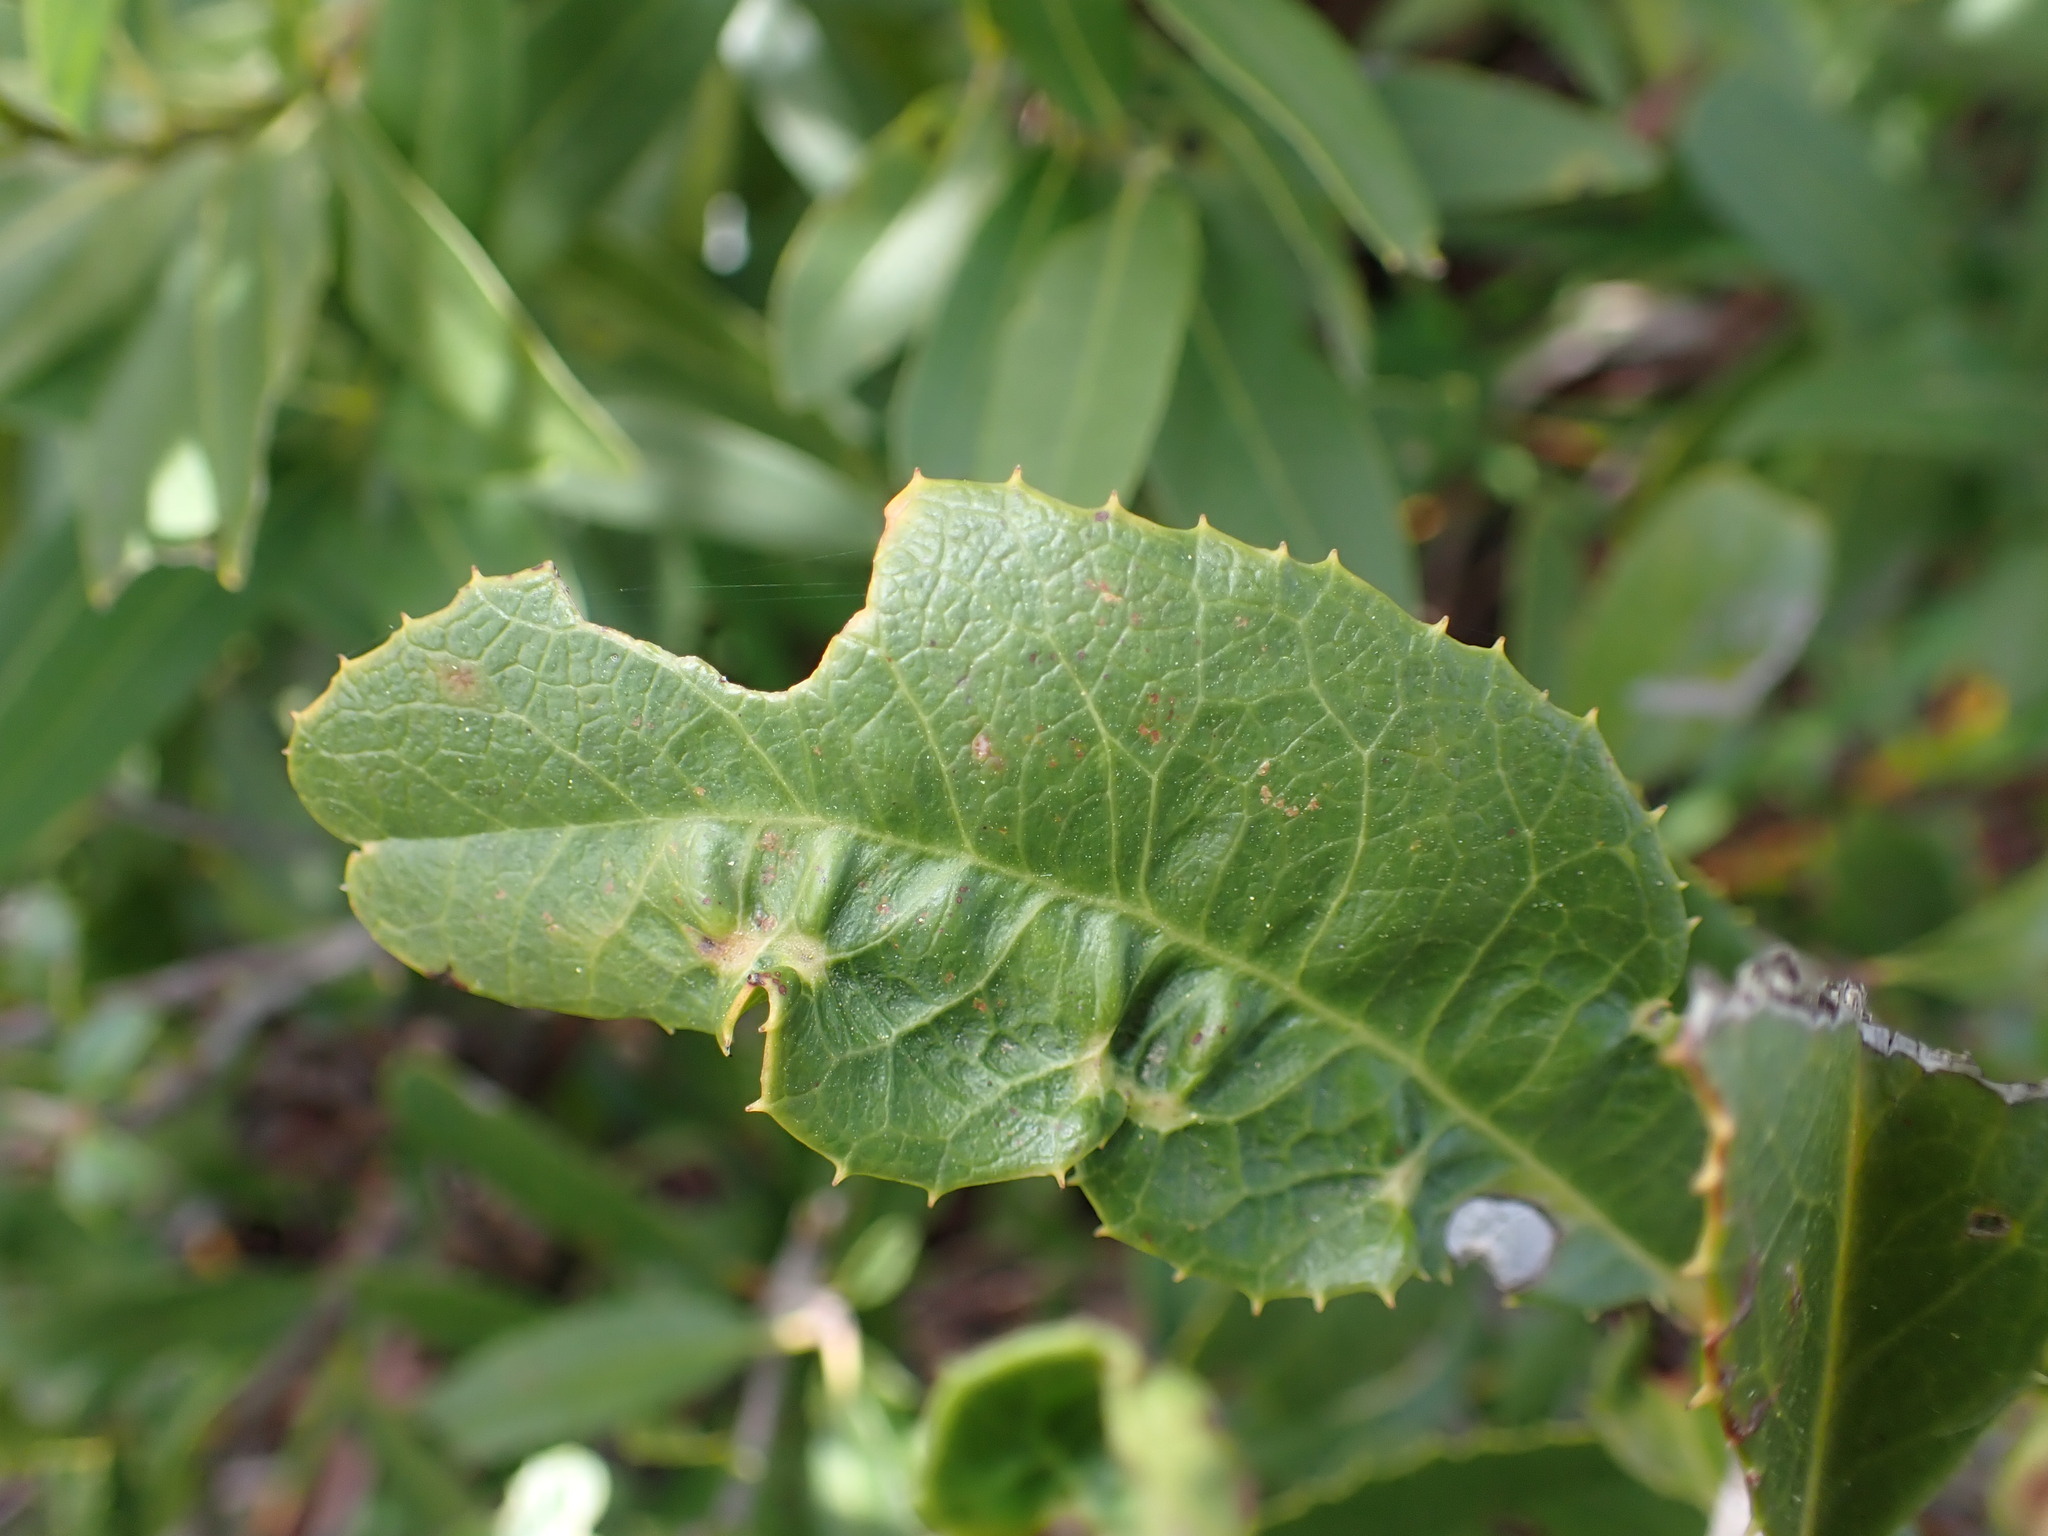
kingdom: Animalia
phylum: Arthropoda
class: Insecta
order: Thysanoptera
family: Phlaeothripidae
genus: Liothrips
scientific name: Liothrips ilex
